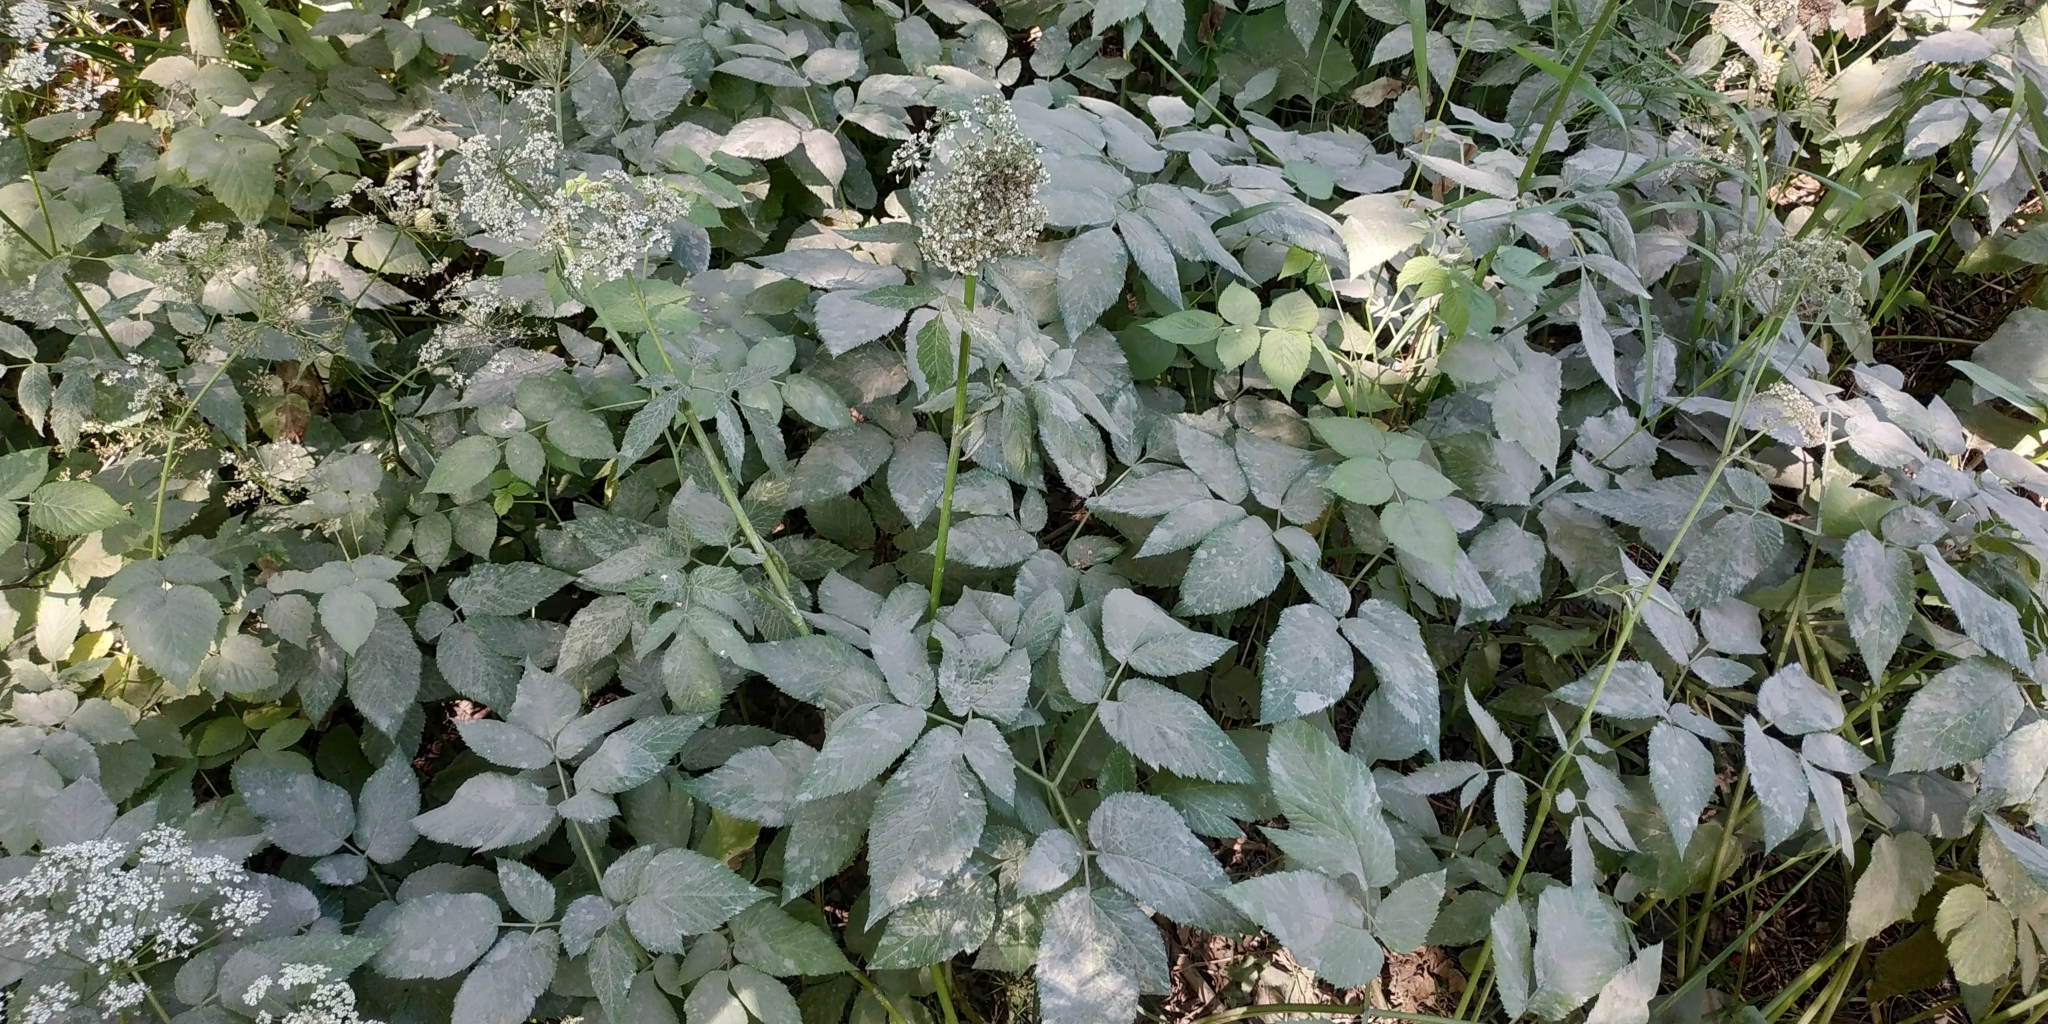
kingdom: Plantae
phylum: Tracheophyta
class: Magnoliopsida
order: Apiales
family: Apiaceae
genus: Aegopodium
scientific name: Aegopodium podagraria
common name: Ground-elder
